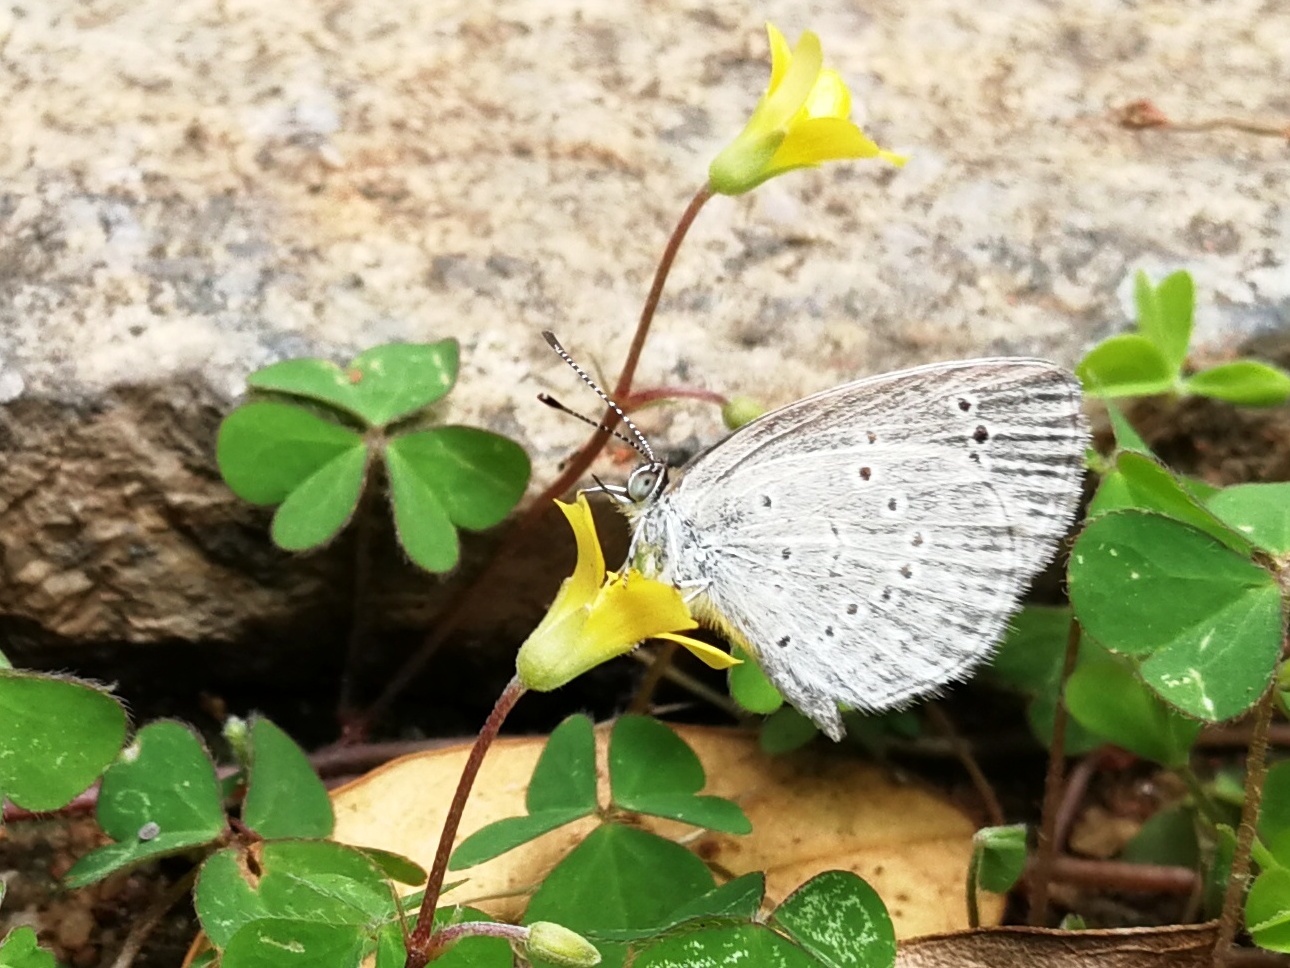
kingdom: Plantae
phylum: Tracheophyta
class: Magnoliopsida
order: Oxalidales
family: Oxalidaceae
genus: Oxalis
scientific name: Oxalis corniculata
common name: Procumbent yellow-sorrel
